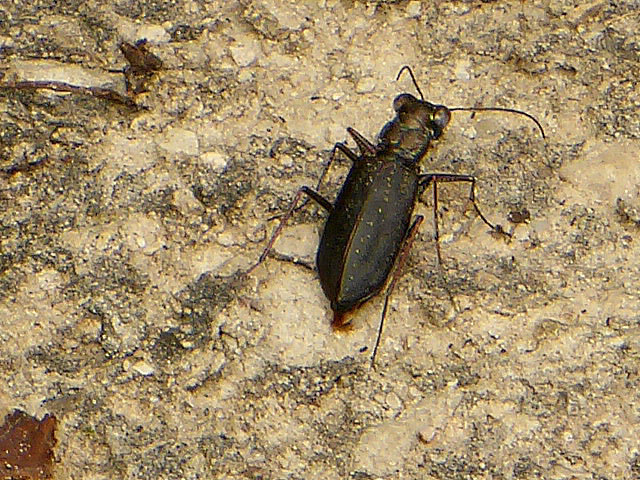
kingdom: Animalia
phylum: Arthropoda
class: Insecta
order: Coleoptera
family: Carabidae
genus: Cicindela
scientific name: Cicindela punctulata
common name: Punctured tiger beetle
